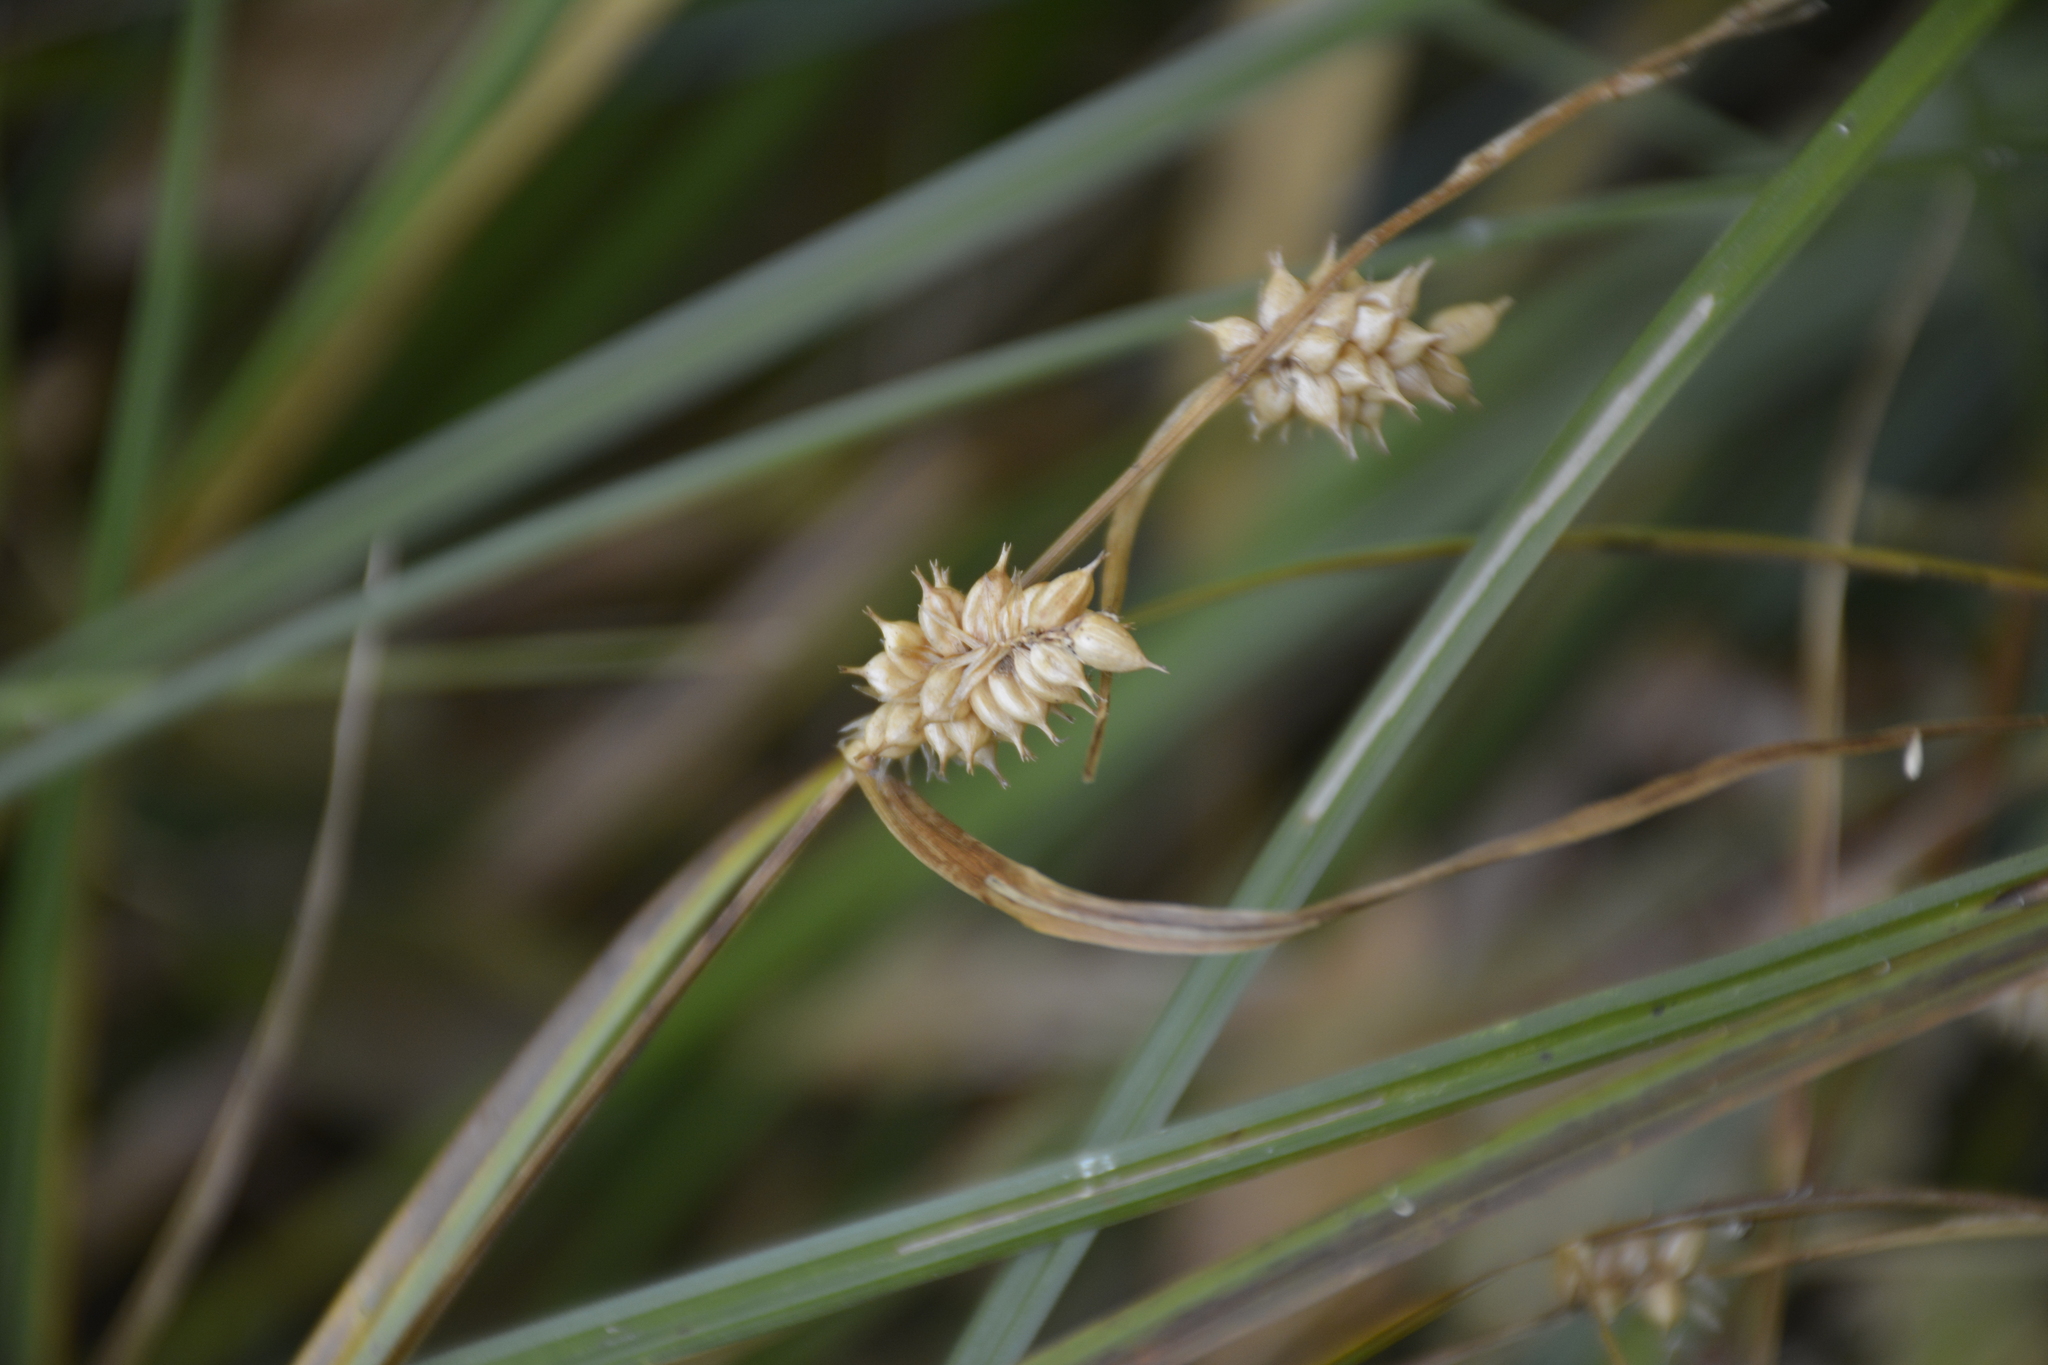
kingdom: Plantae
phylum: Tracheophyta
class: Liliopsida
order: Poales
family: Cyperaceae
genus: Carex
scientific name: Carex vesicaria
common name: Bladder-sedge
